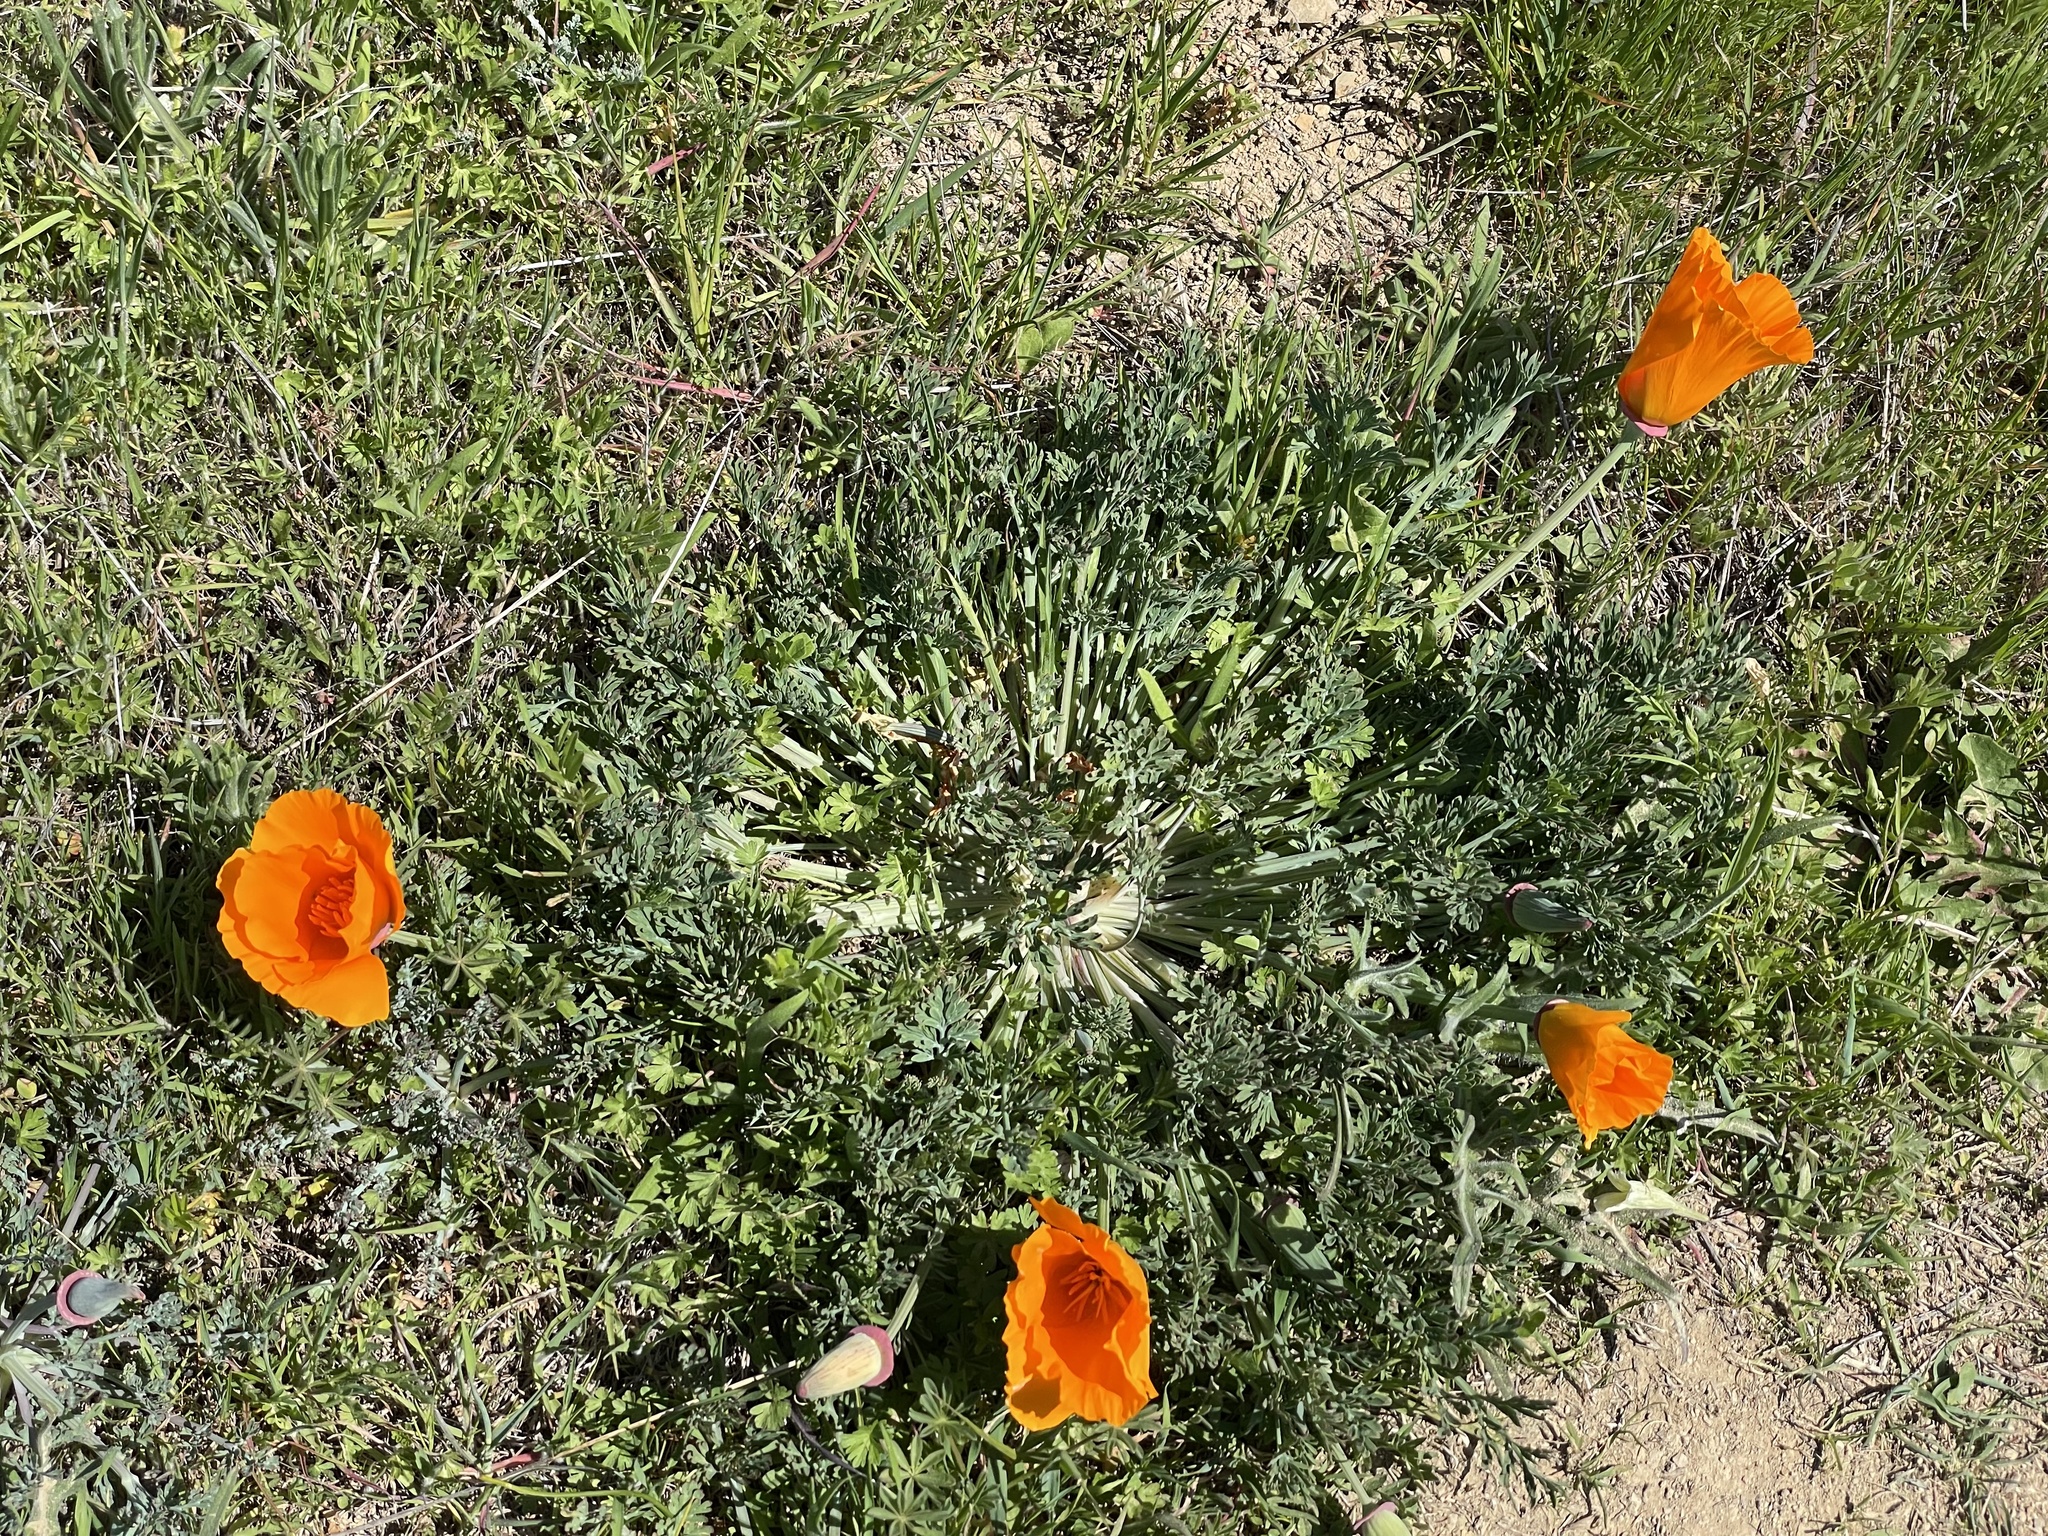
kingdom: Plantae
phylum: Tracheophyta
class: Magnoliopsida
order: Ranunculales
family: Papaveraceae
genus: Eschscholzia
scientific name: Eschscholzia californica
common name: California poppy
